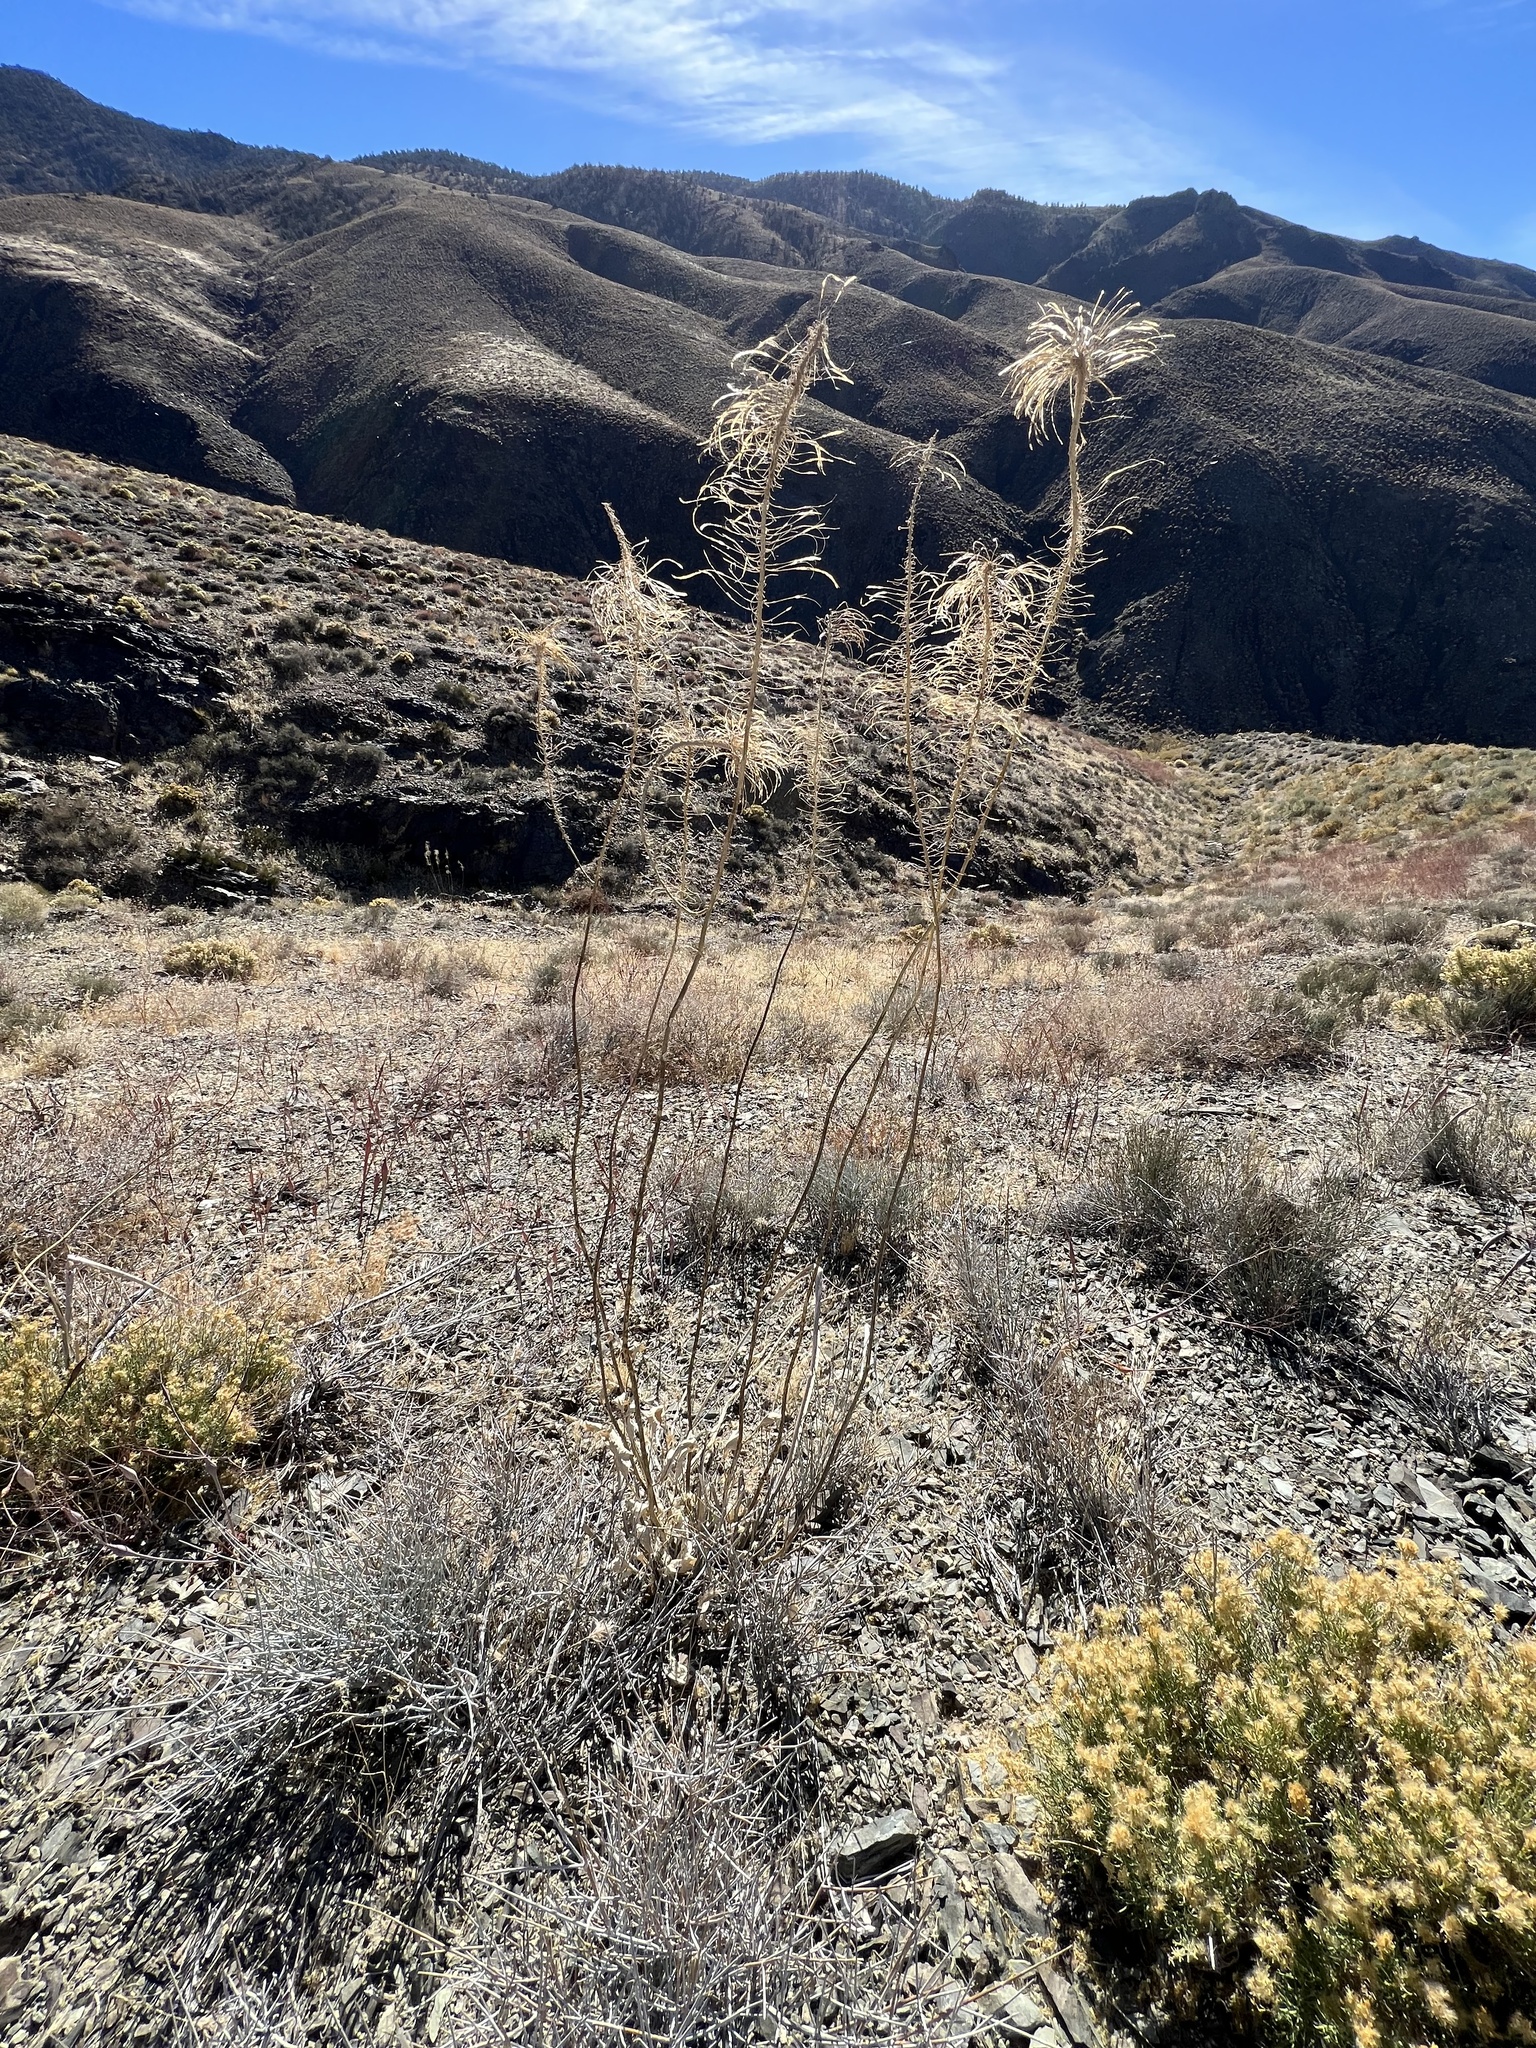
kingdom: Plantae
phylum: Tracheophyta
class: Magnoliopsida
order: Brassicales
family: Brassicaceae
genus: Stanleya
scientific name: Stanleya elata
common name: Panamint prince's plume
